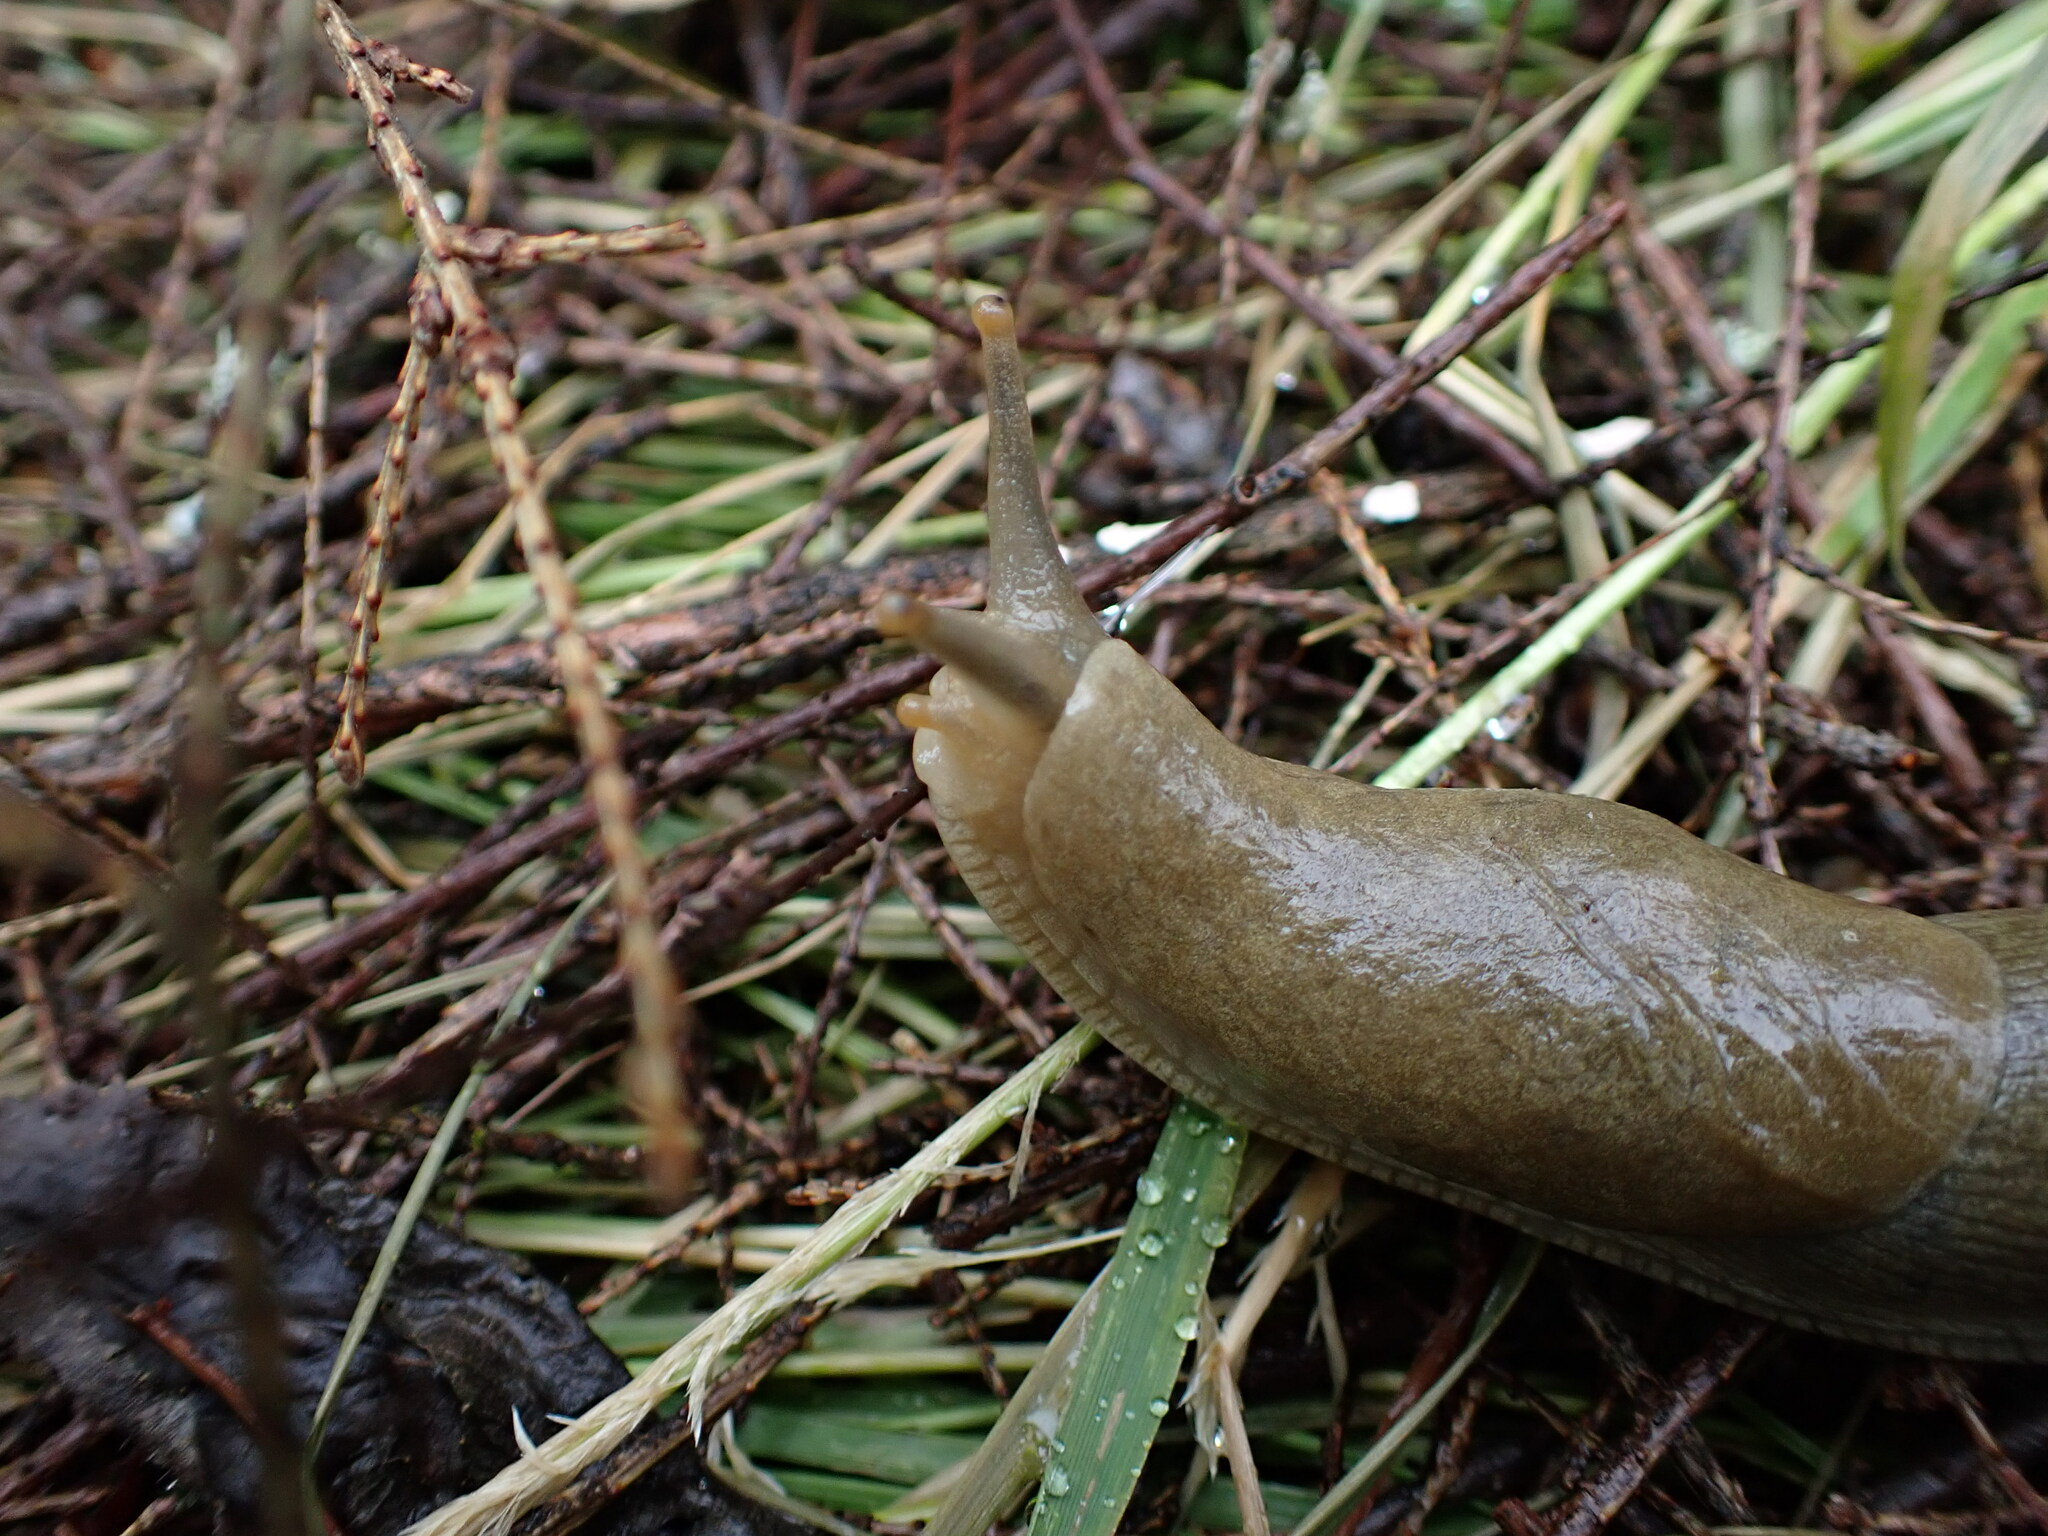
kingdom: Animalia
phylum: Mollusca
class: Gastropoda
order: Stylommatophora
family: Ariolimacidae
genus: Ariolimax
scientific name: Ariolimax columbianus
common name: Pacific banana slug
